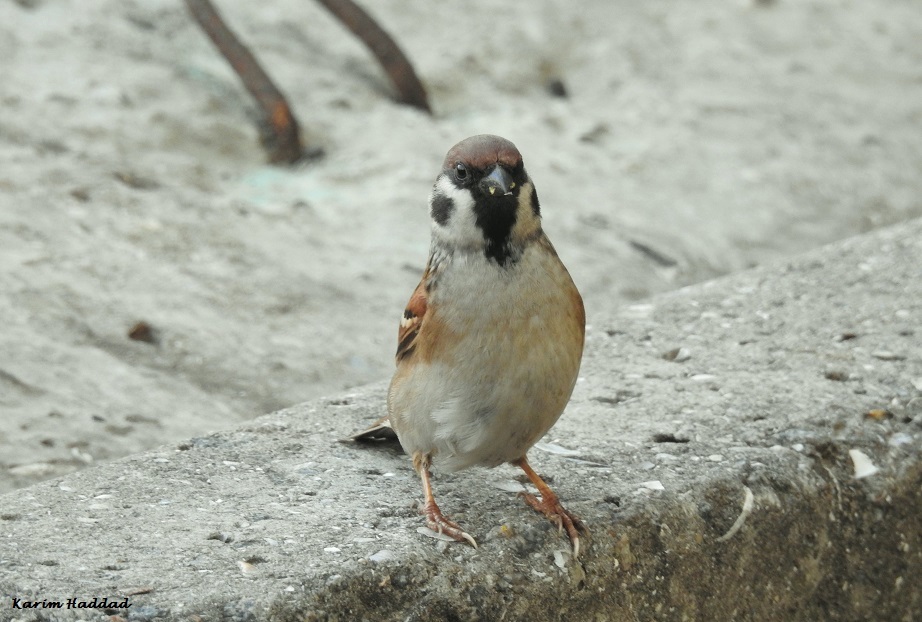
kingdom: Animalia
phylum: Chordata
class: Aves
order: Passeriformes
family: Passeridae
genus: Passer
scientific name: Passer montanus
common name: Eurasian tree sparrow
